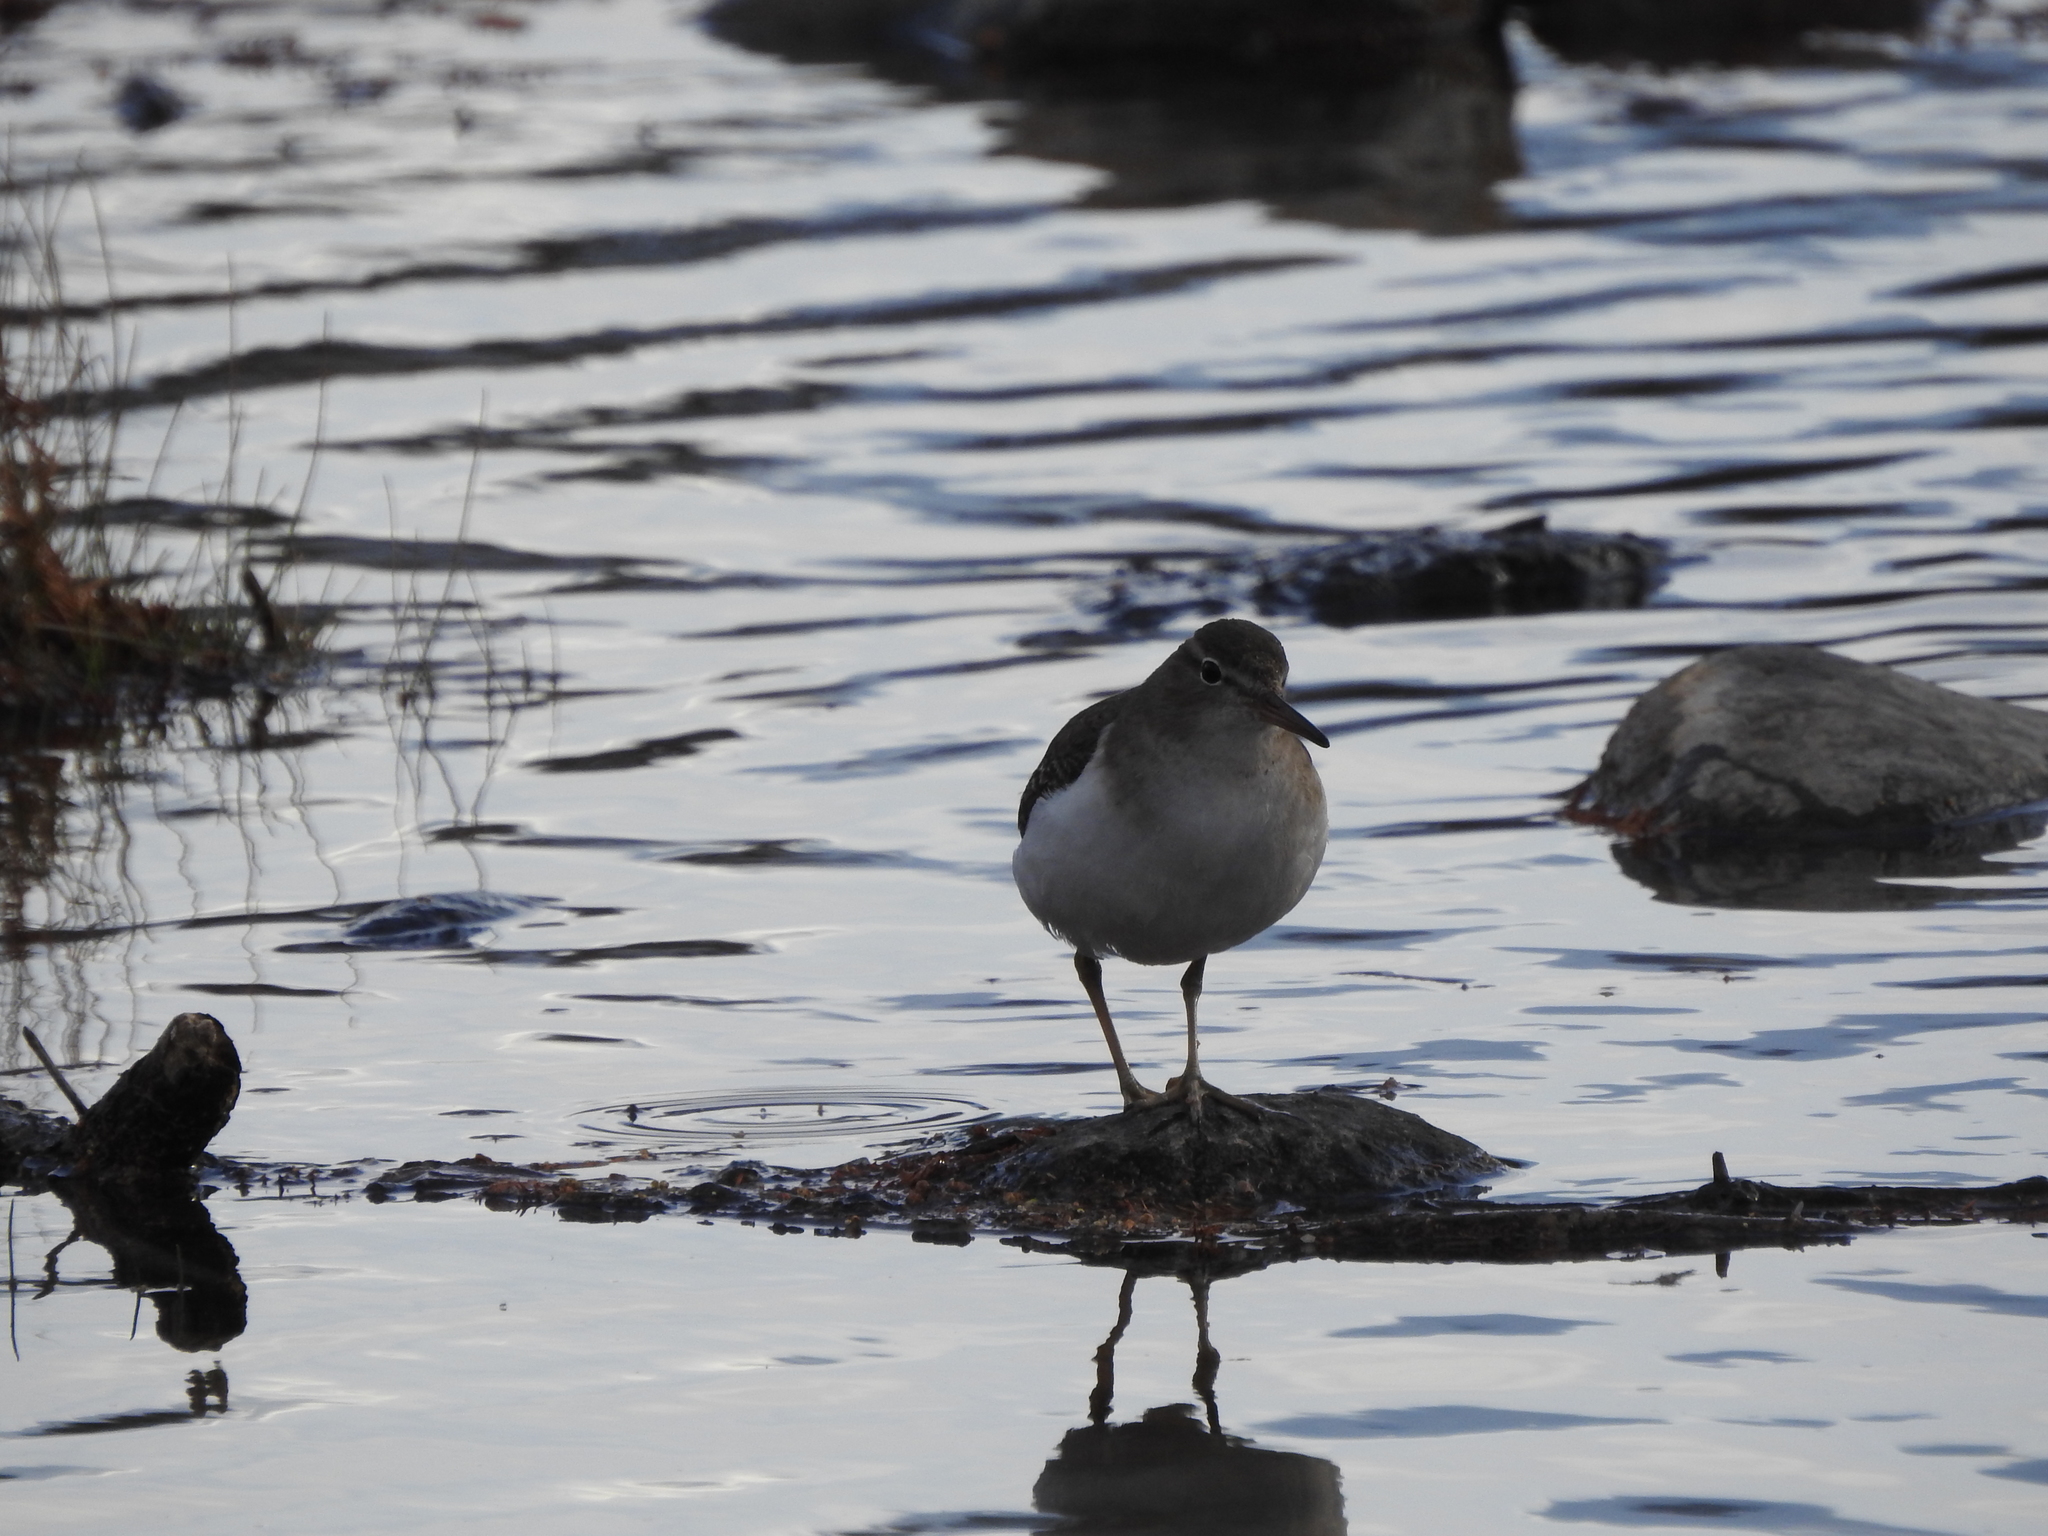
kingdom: Animalia
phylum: Chordata
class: Aves
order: Charadriiformes
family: Scolopacidae
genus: Actitis
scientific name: Actitis macularius
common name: Spotted sandpiper
